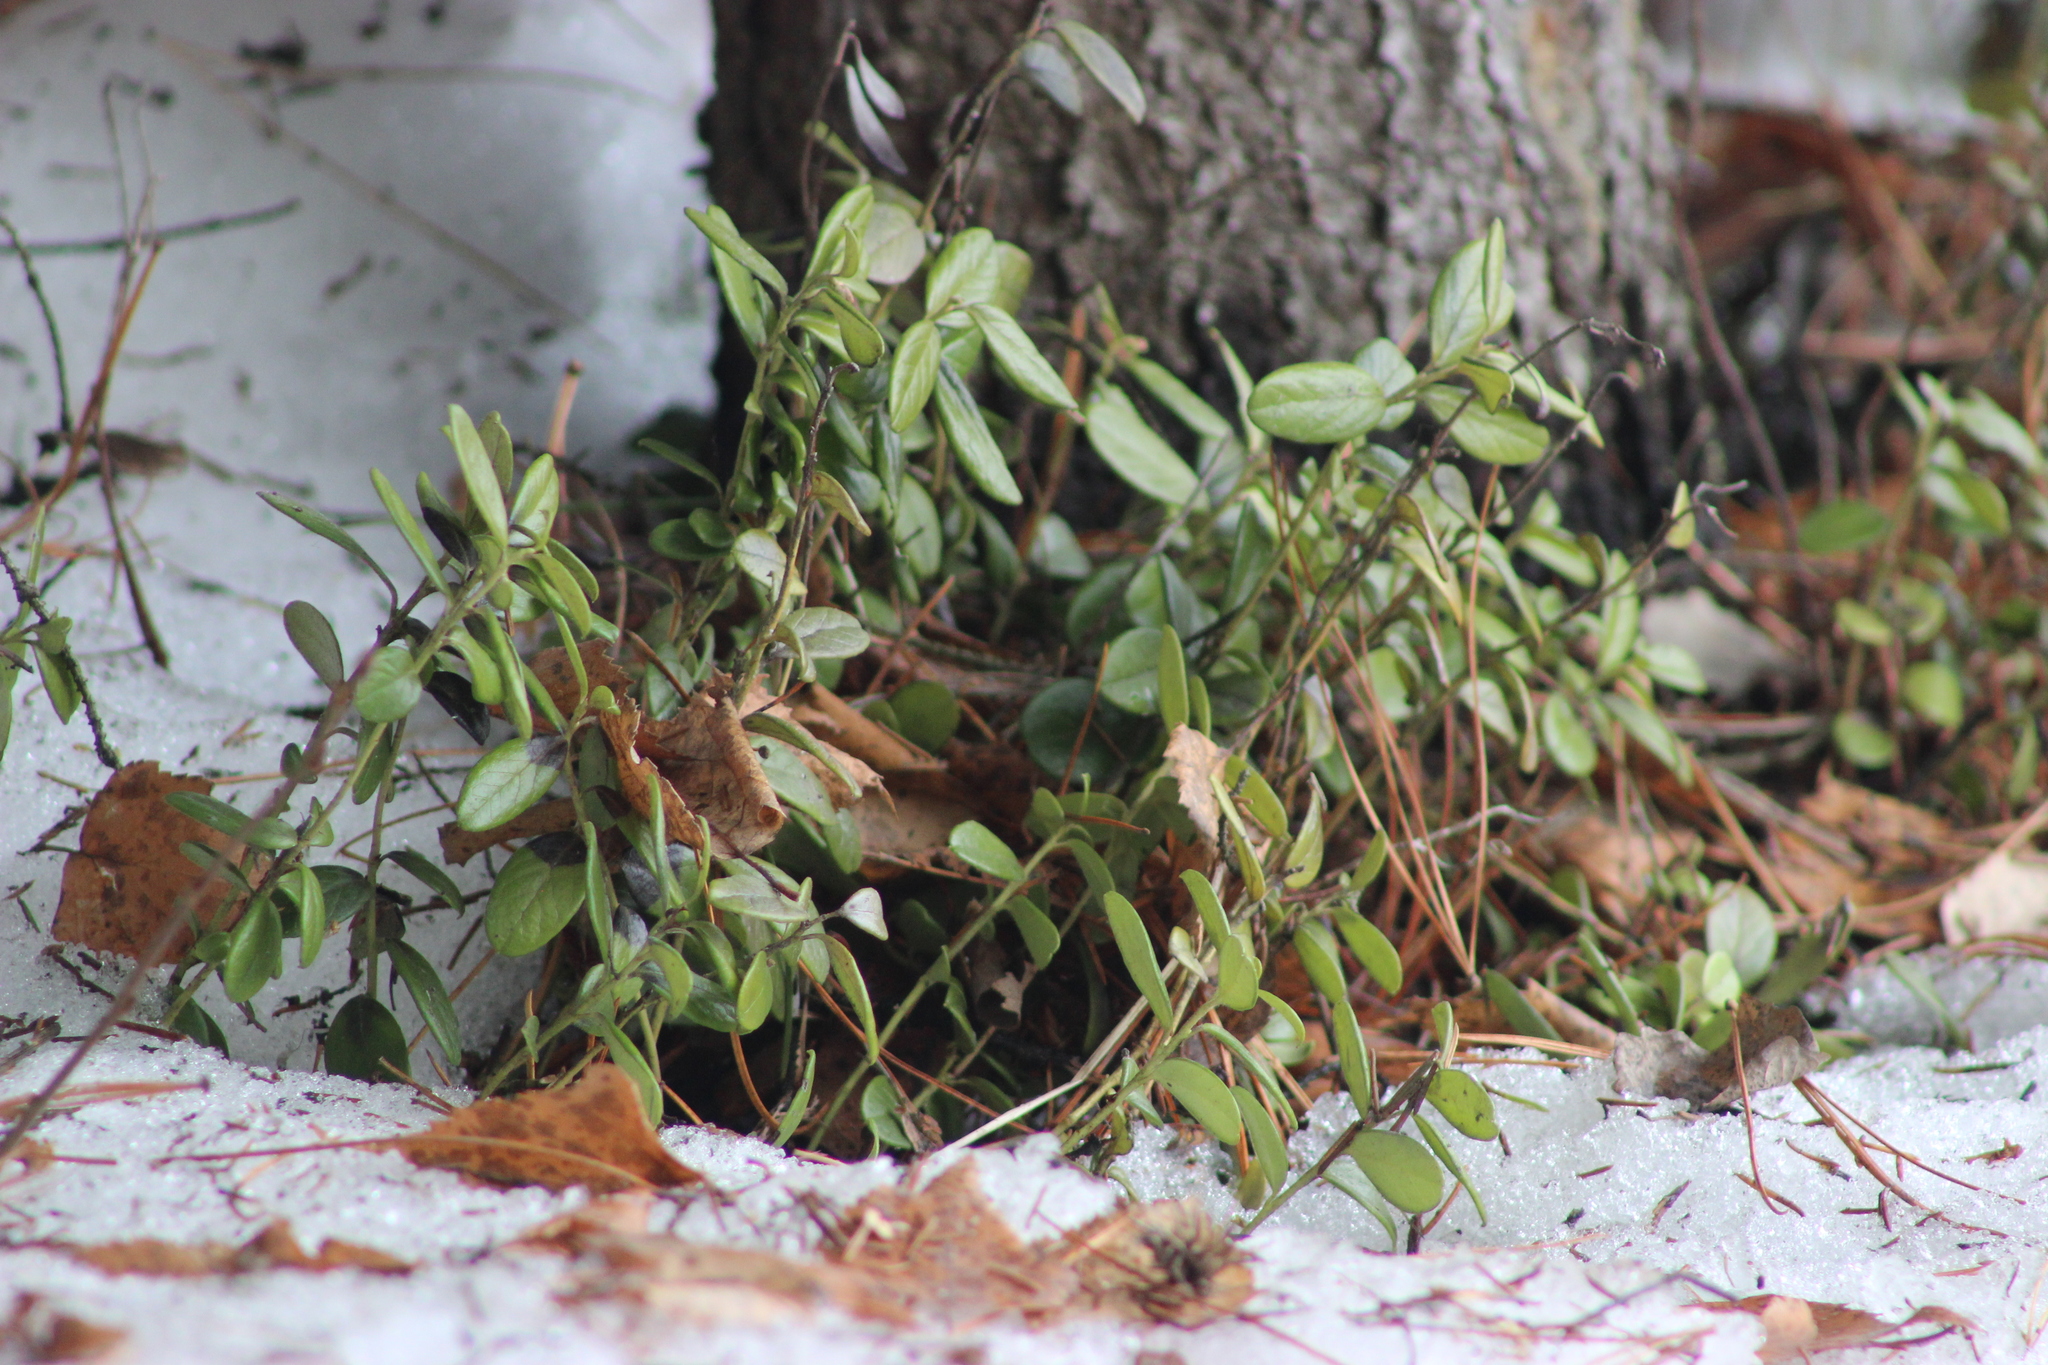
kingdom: Plantae
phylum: Tracheophyta
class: Magnoliopsida
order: Ericales
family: Ericaceae
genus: Vaccinium
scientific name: Vaccinium vitis-idaea
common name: Cowberry
